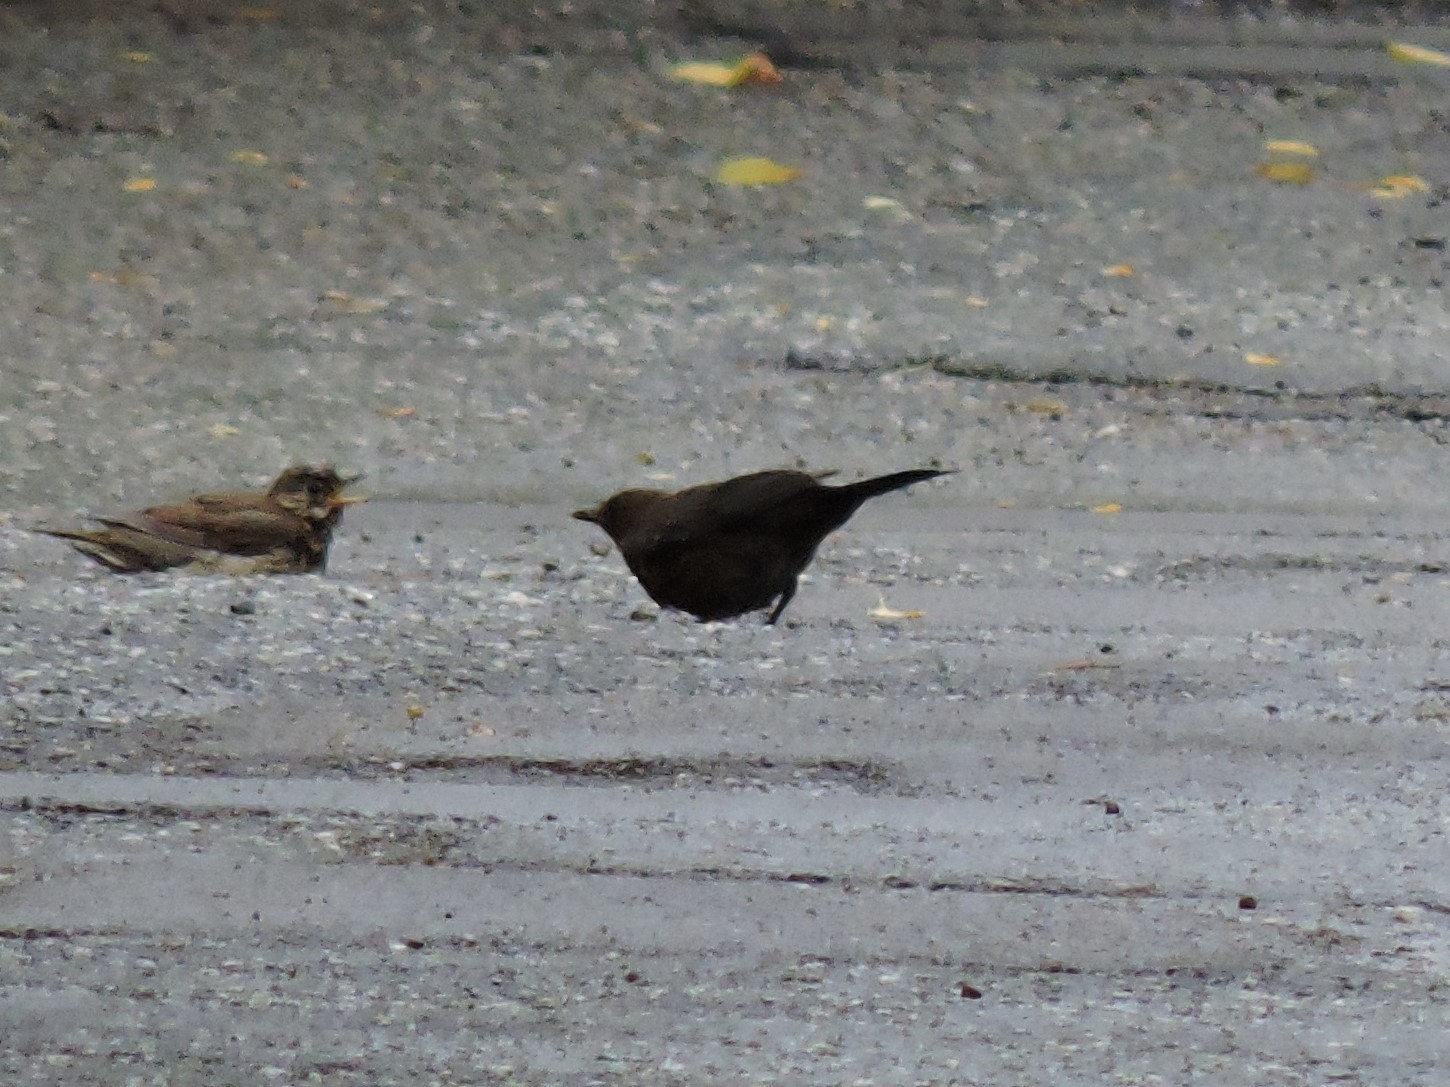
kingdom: Animalia
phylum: Chordata
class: Aves
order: Passeriformes
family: Turdidae
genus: Turdus
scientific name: Turdus merula
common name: Common blackbird
